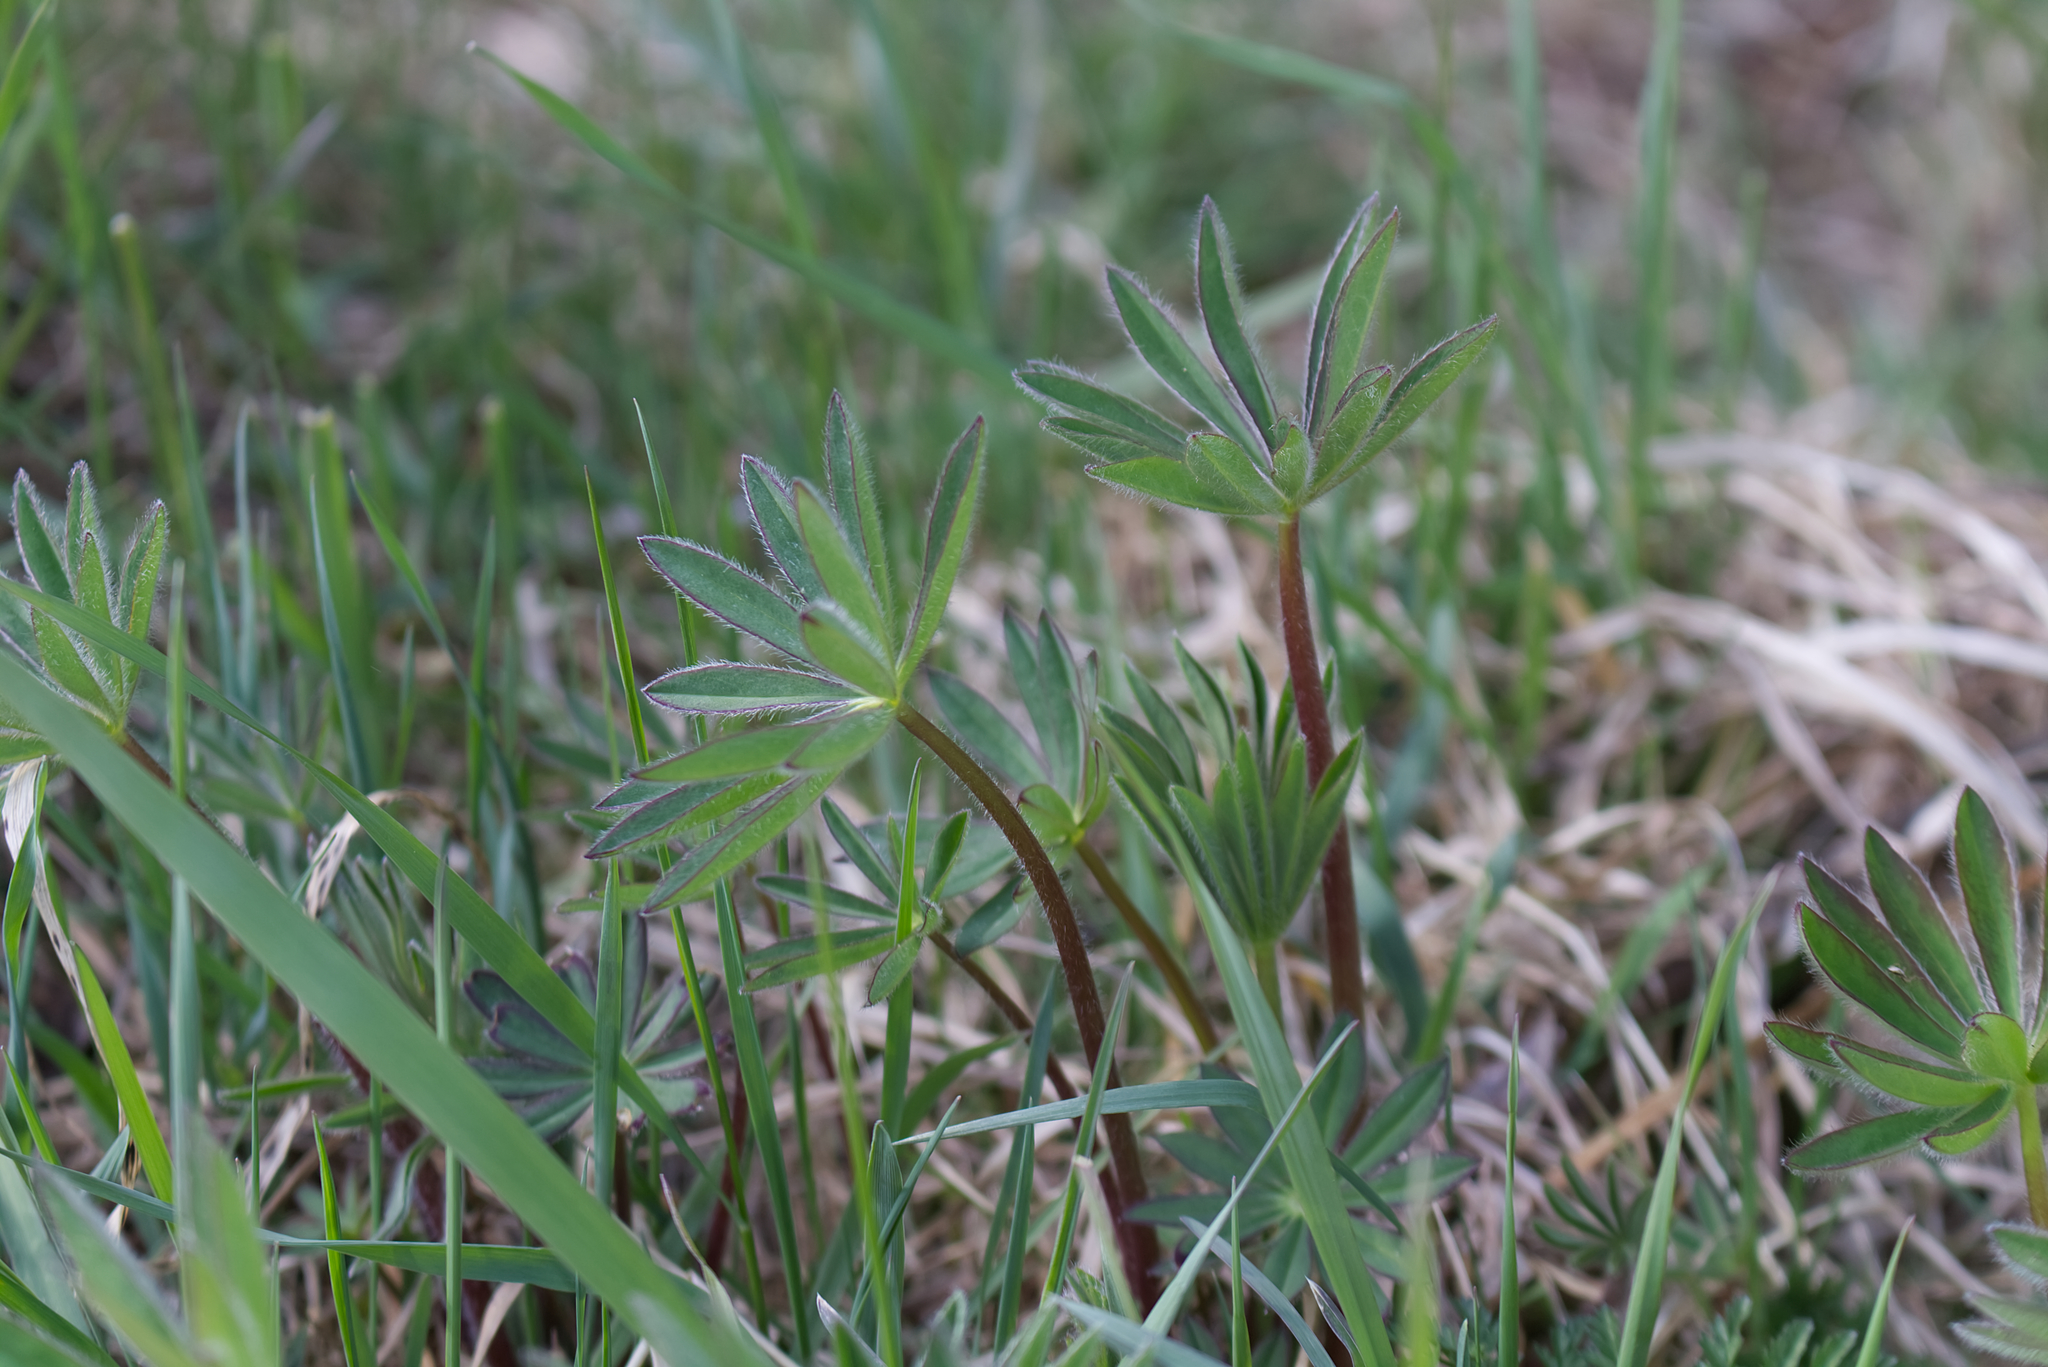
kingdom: Plantae
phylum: Tracheophyta
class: Magnoliopsida
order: Fabales
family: Fabaceae
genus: Lupinus
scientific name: Lupinus polyphyllus
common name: Garden lupin
